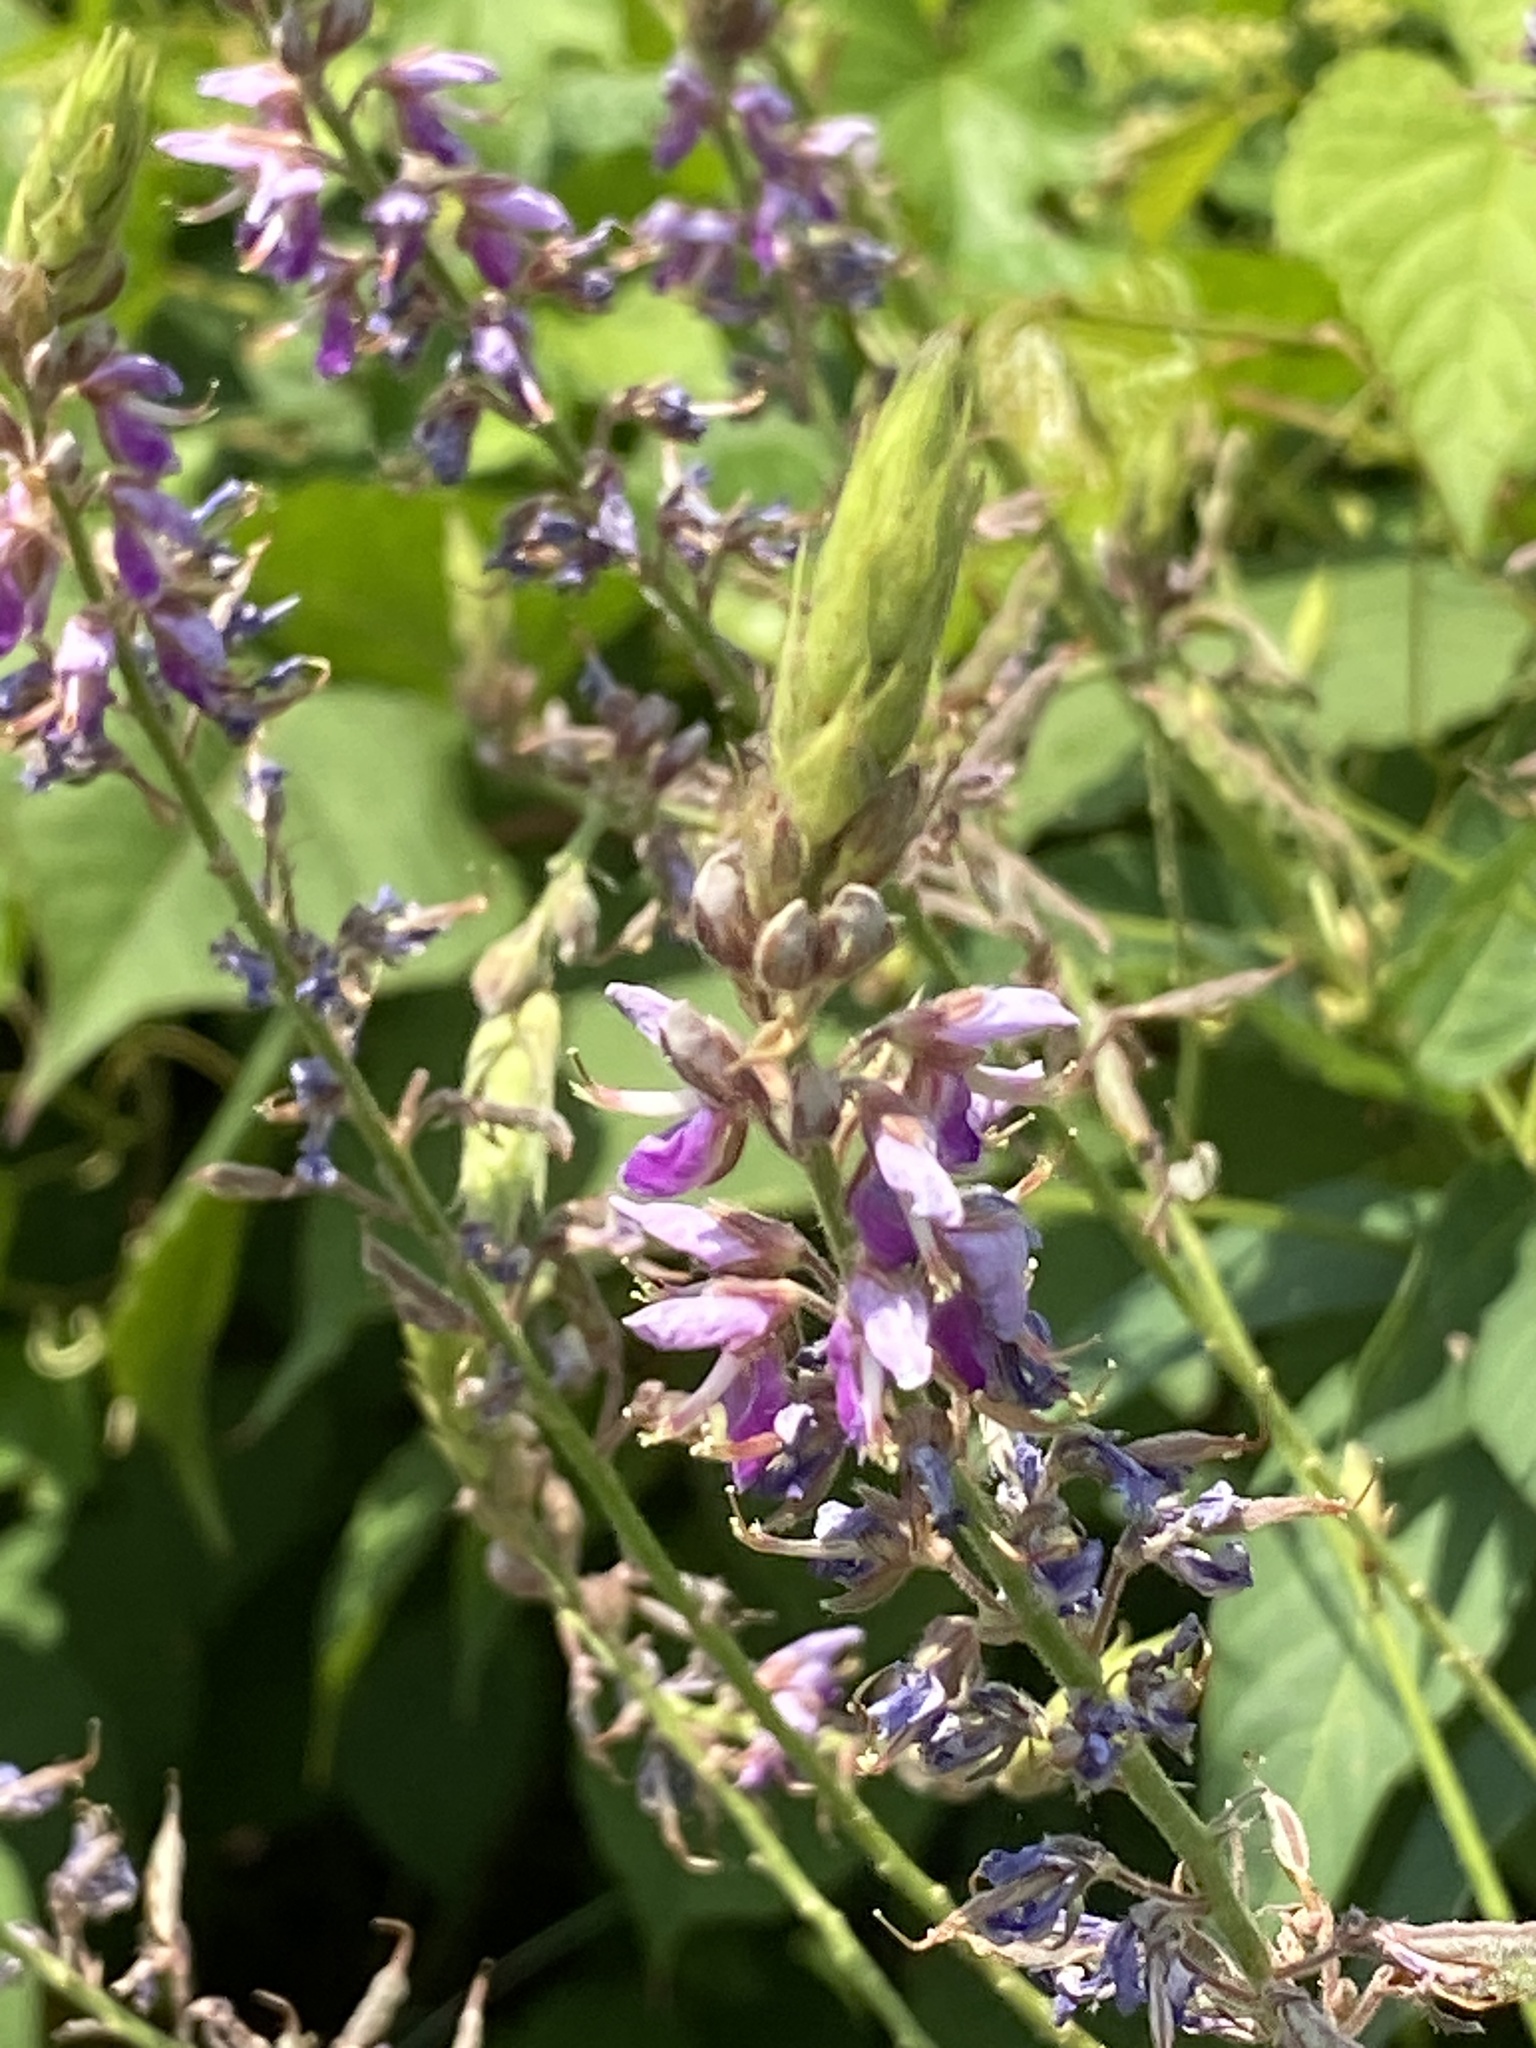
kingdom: Plantae
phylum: Tracheophyta
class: Magnoliopsida
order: Fabales
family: Fabaceae
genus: Desmodium
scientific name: Desmodium canadense
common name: Canada tick-trefoil
